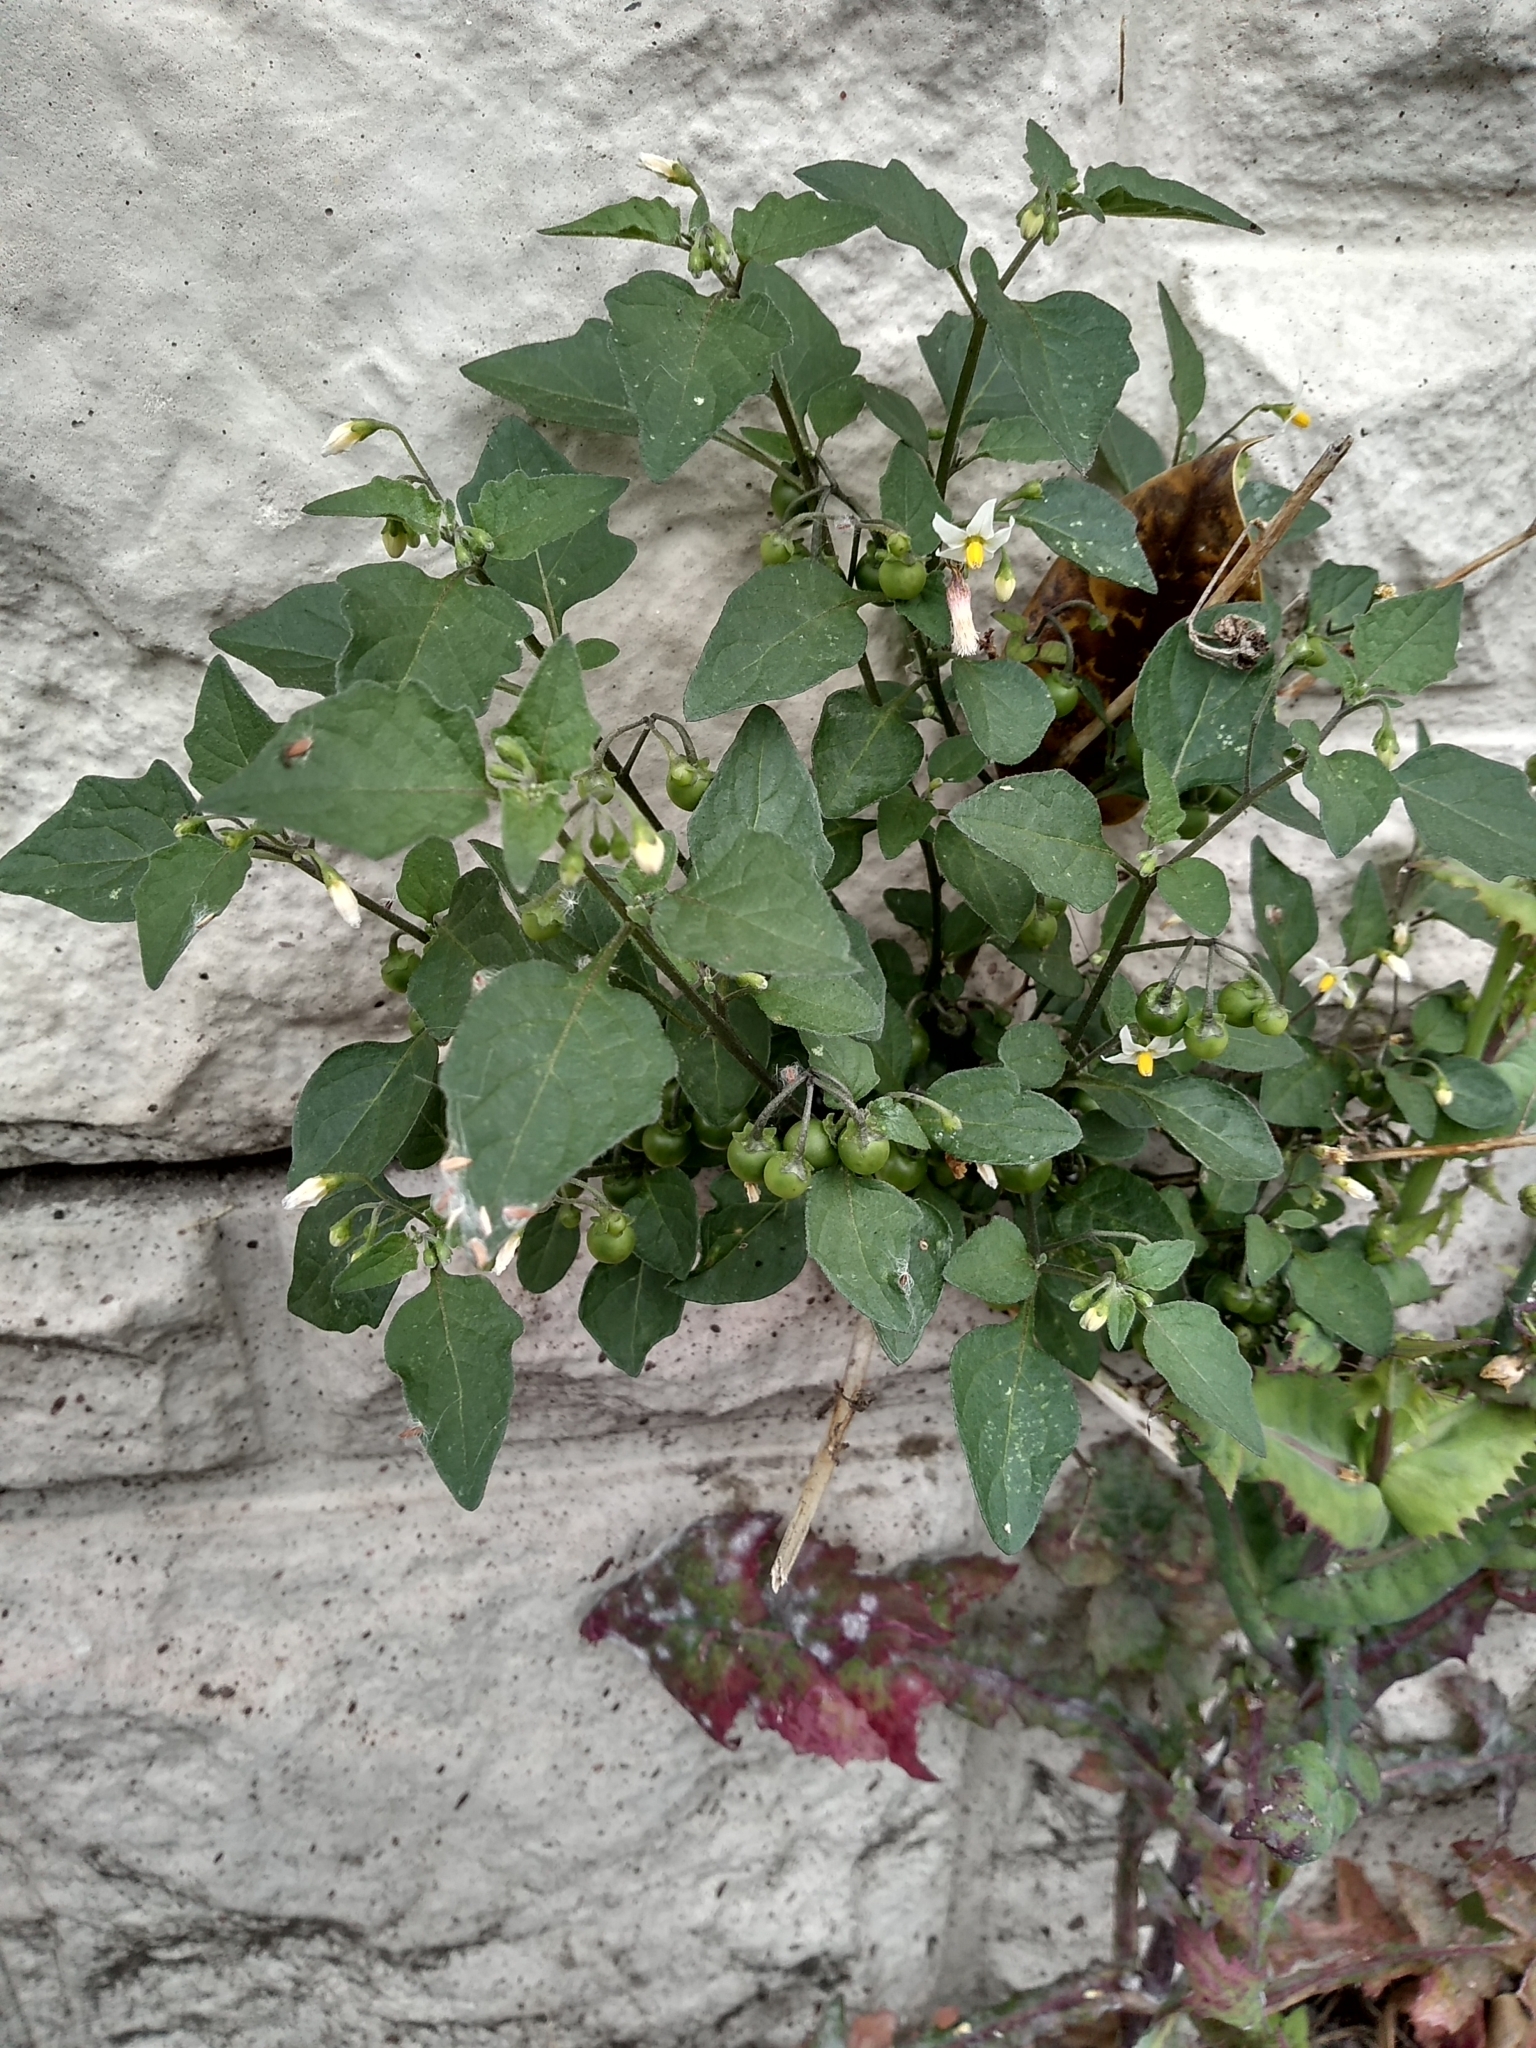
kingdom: Plantae
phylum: Tracheophyta
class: Magnoliopsida
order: Solanales
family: Solanaceae
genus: Solanum
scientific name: Solanum nigrum
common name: Black nightshade
